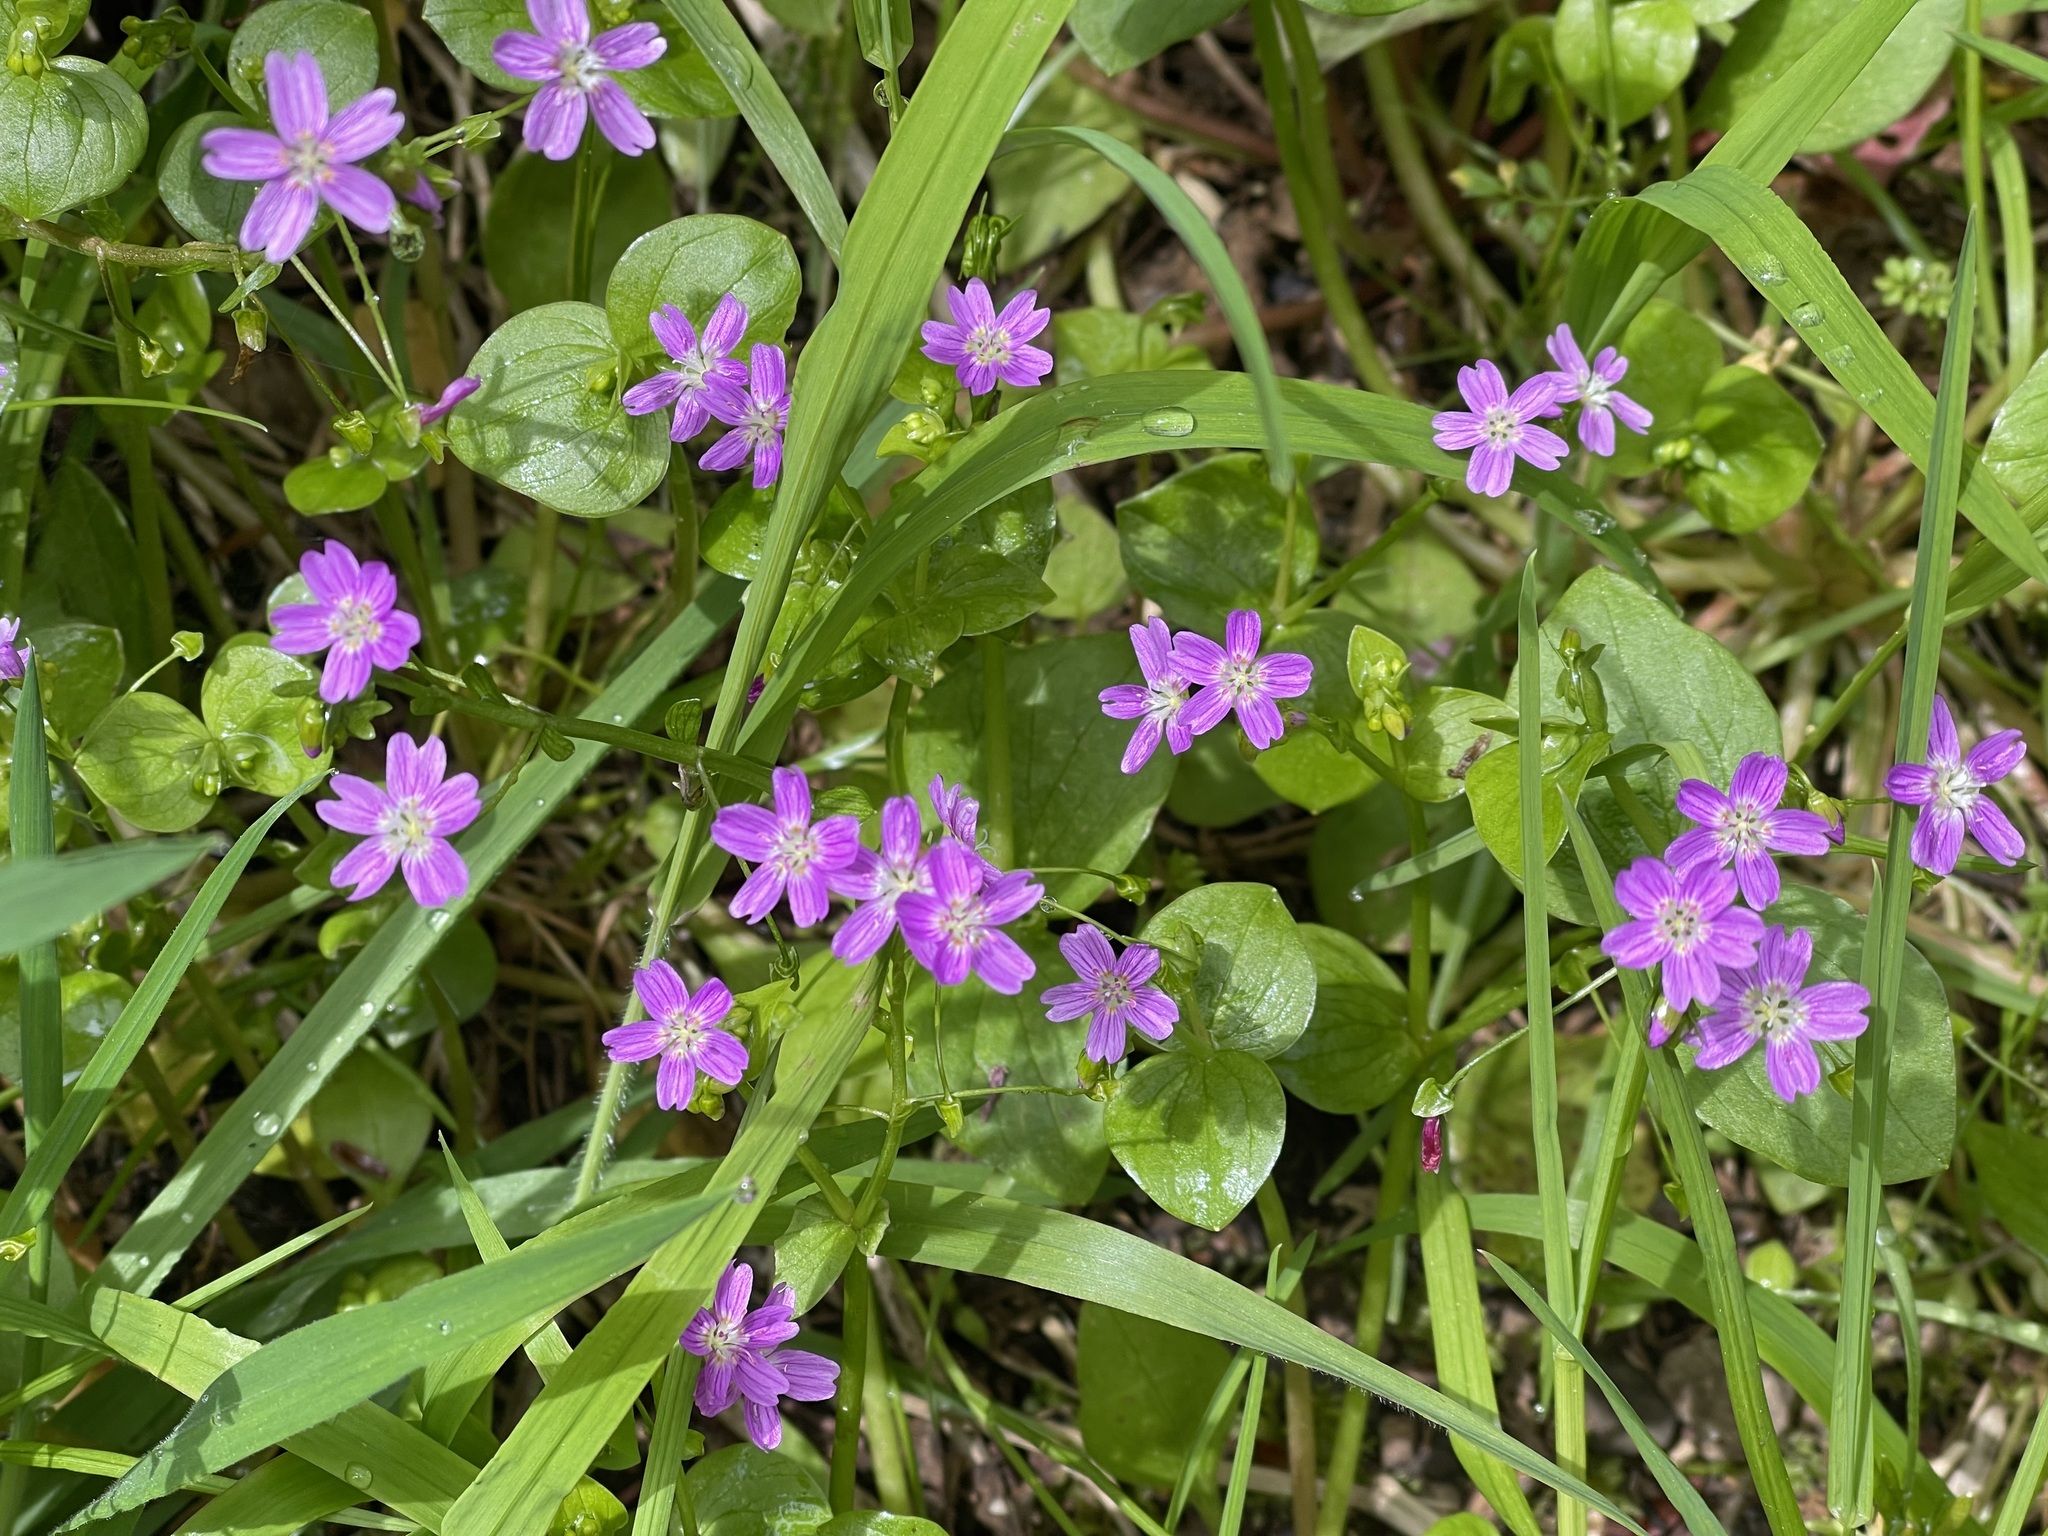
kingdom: Plantae
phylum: Tracheophyta
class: Magnoliopsida
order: Caryophyllales
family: Montiaceae
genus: Claytonia
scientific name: Claytonia sibirica
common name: Pink purslane
